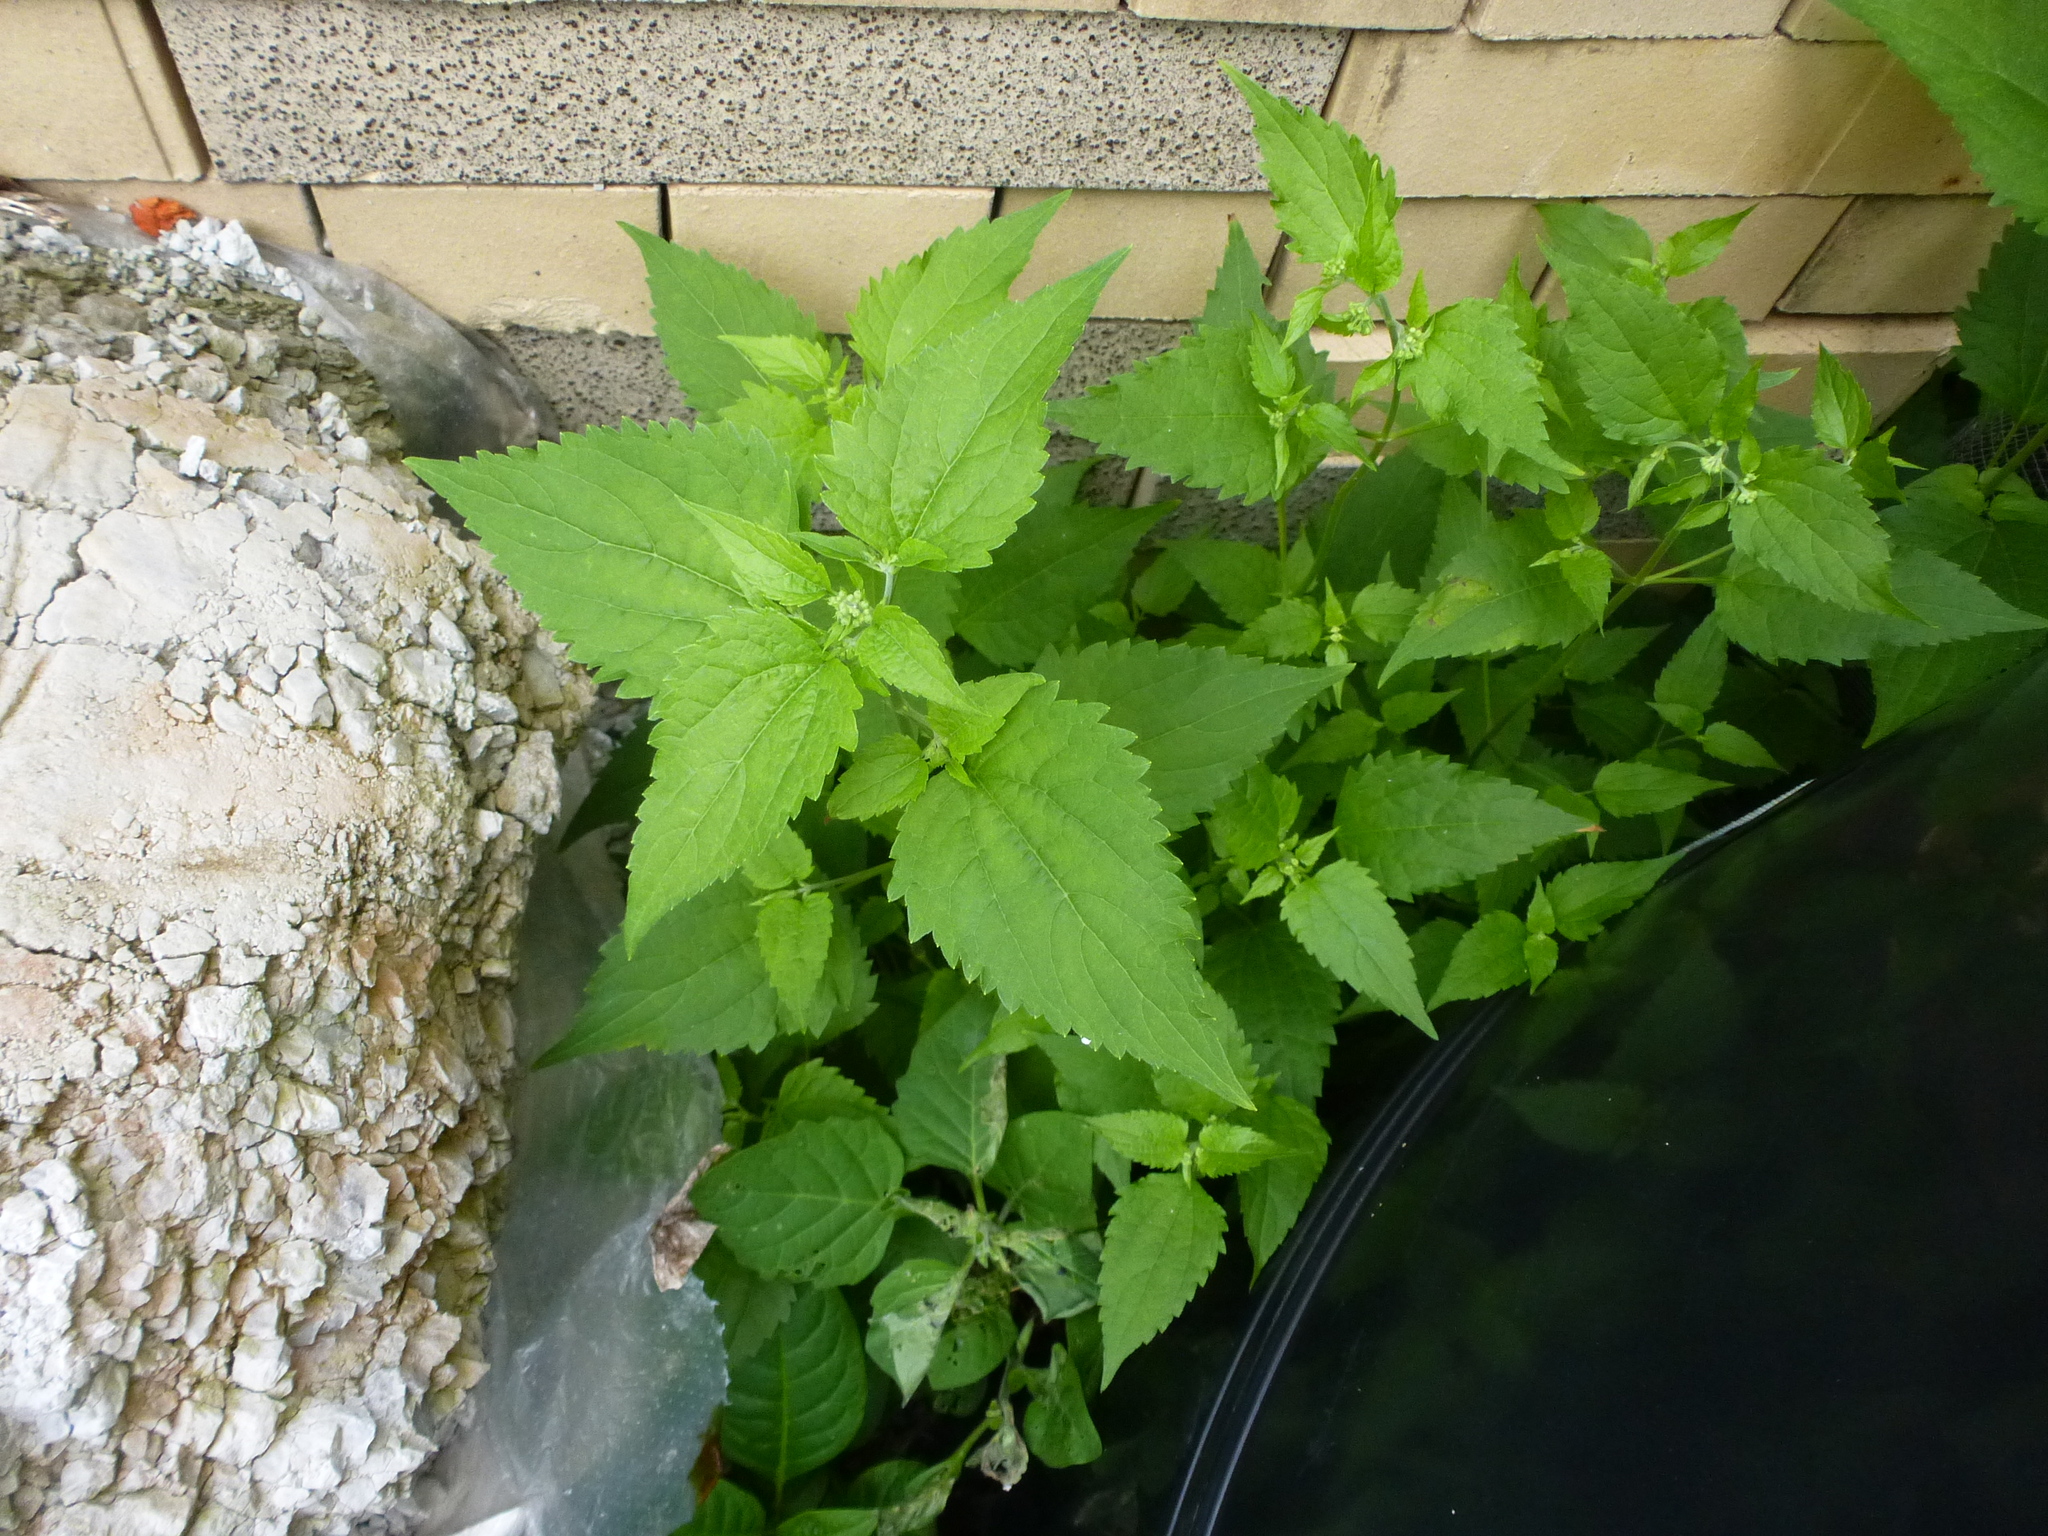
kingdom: Plantae
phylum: Tracheophyta
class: Magnoliopsida
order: Asterales
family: Asteraceae
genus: Ageratina
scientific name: Ageratina altissima
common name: White snakeroot
